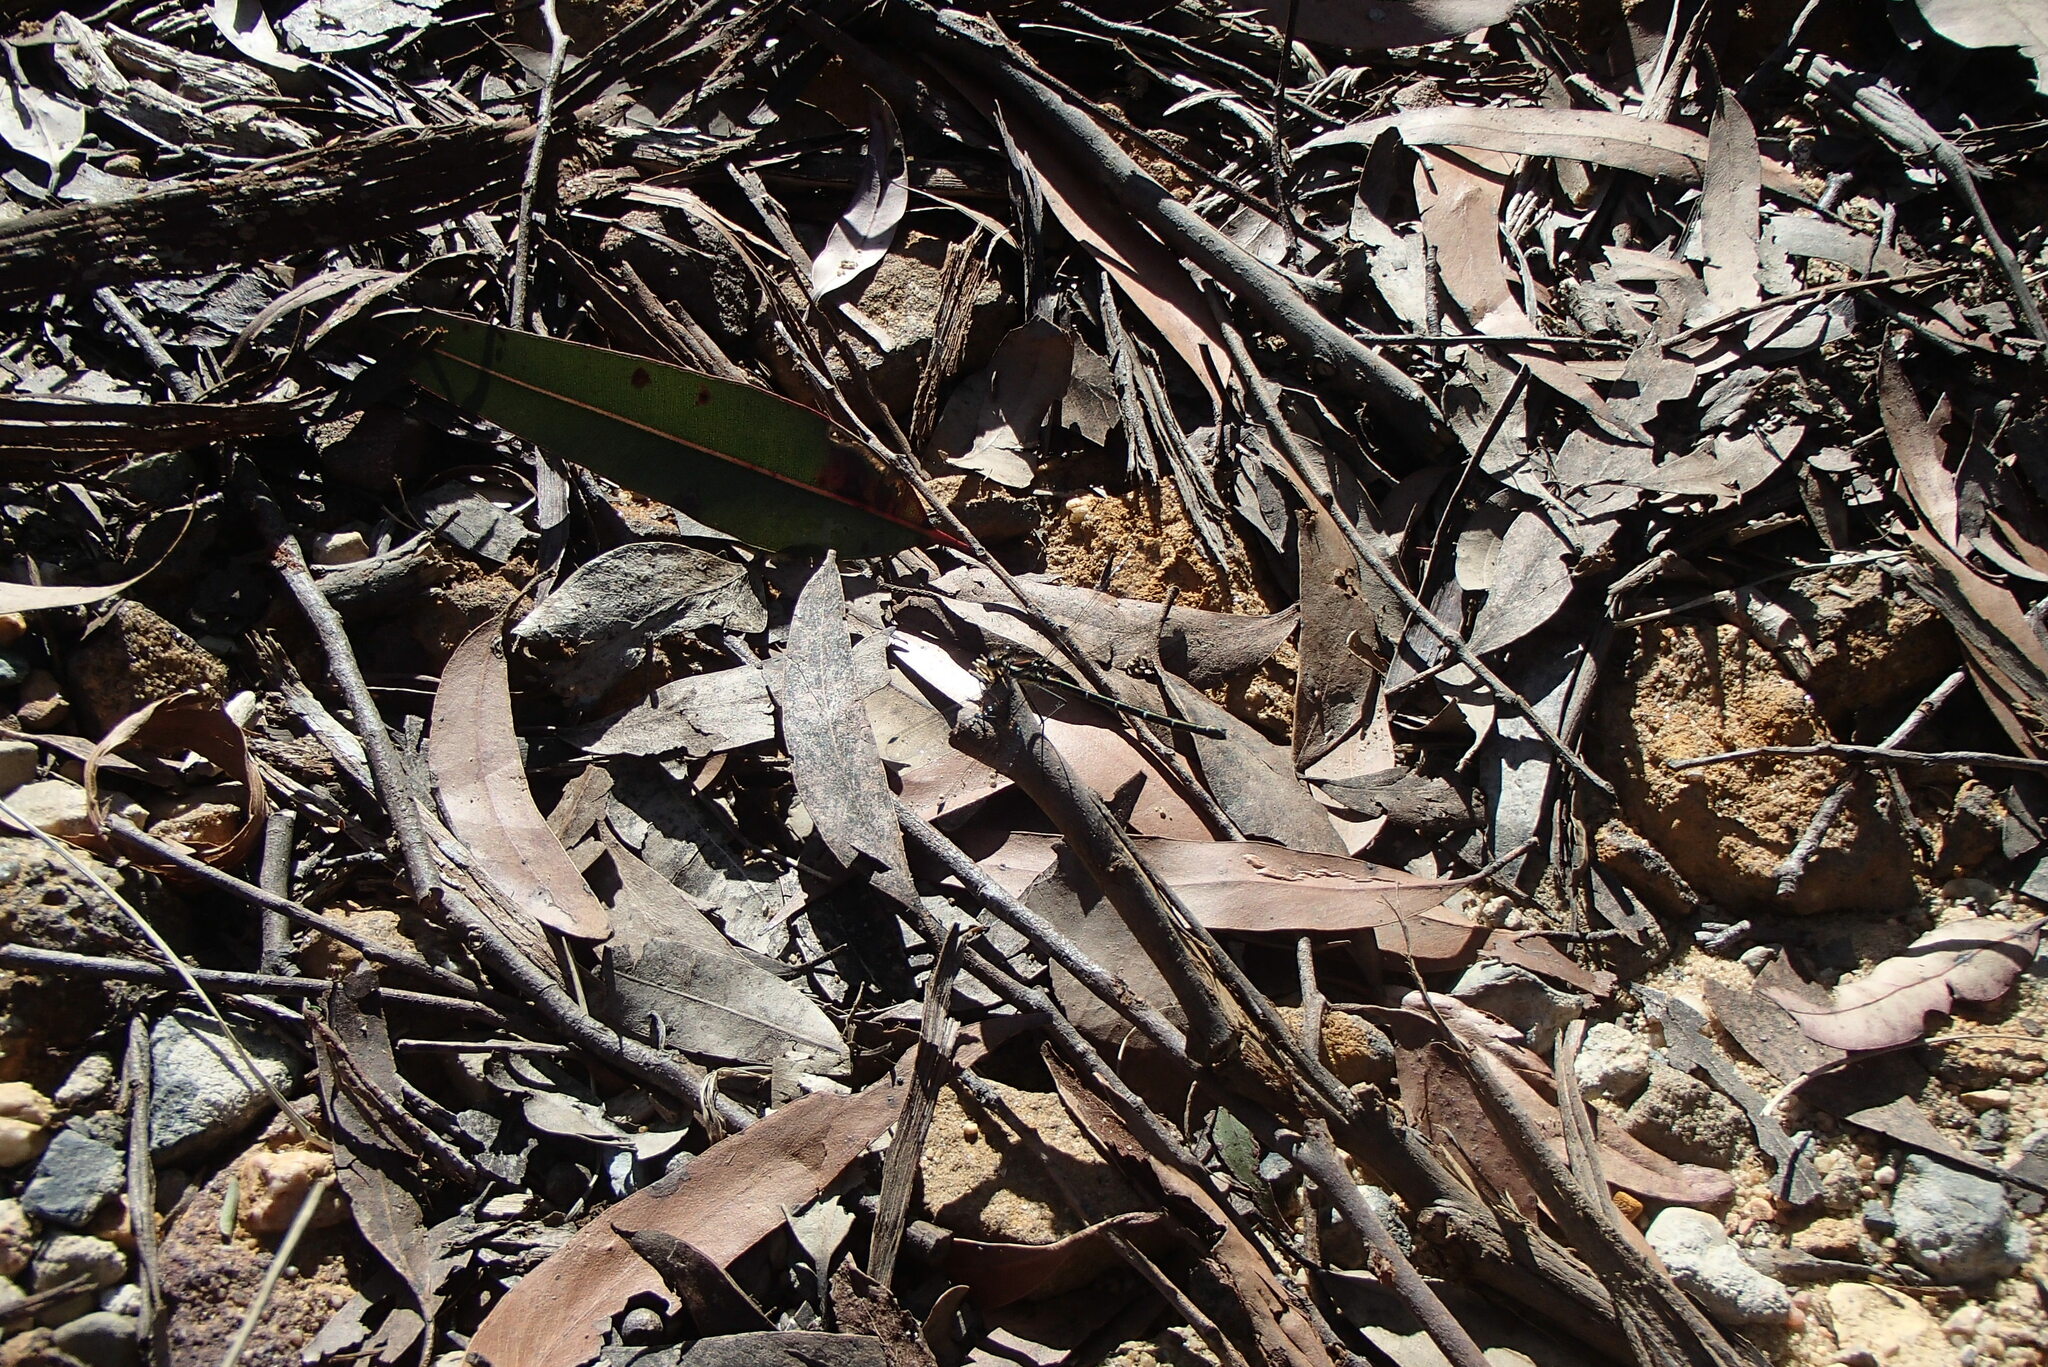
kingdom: Animalia
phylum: Arthropoda
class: Insecta
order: Odonata
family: Argiolestidae
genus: Austroargiolestes
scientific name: Austroargiolestes isabellae
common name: Sydney flatwing
